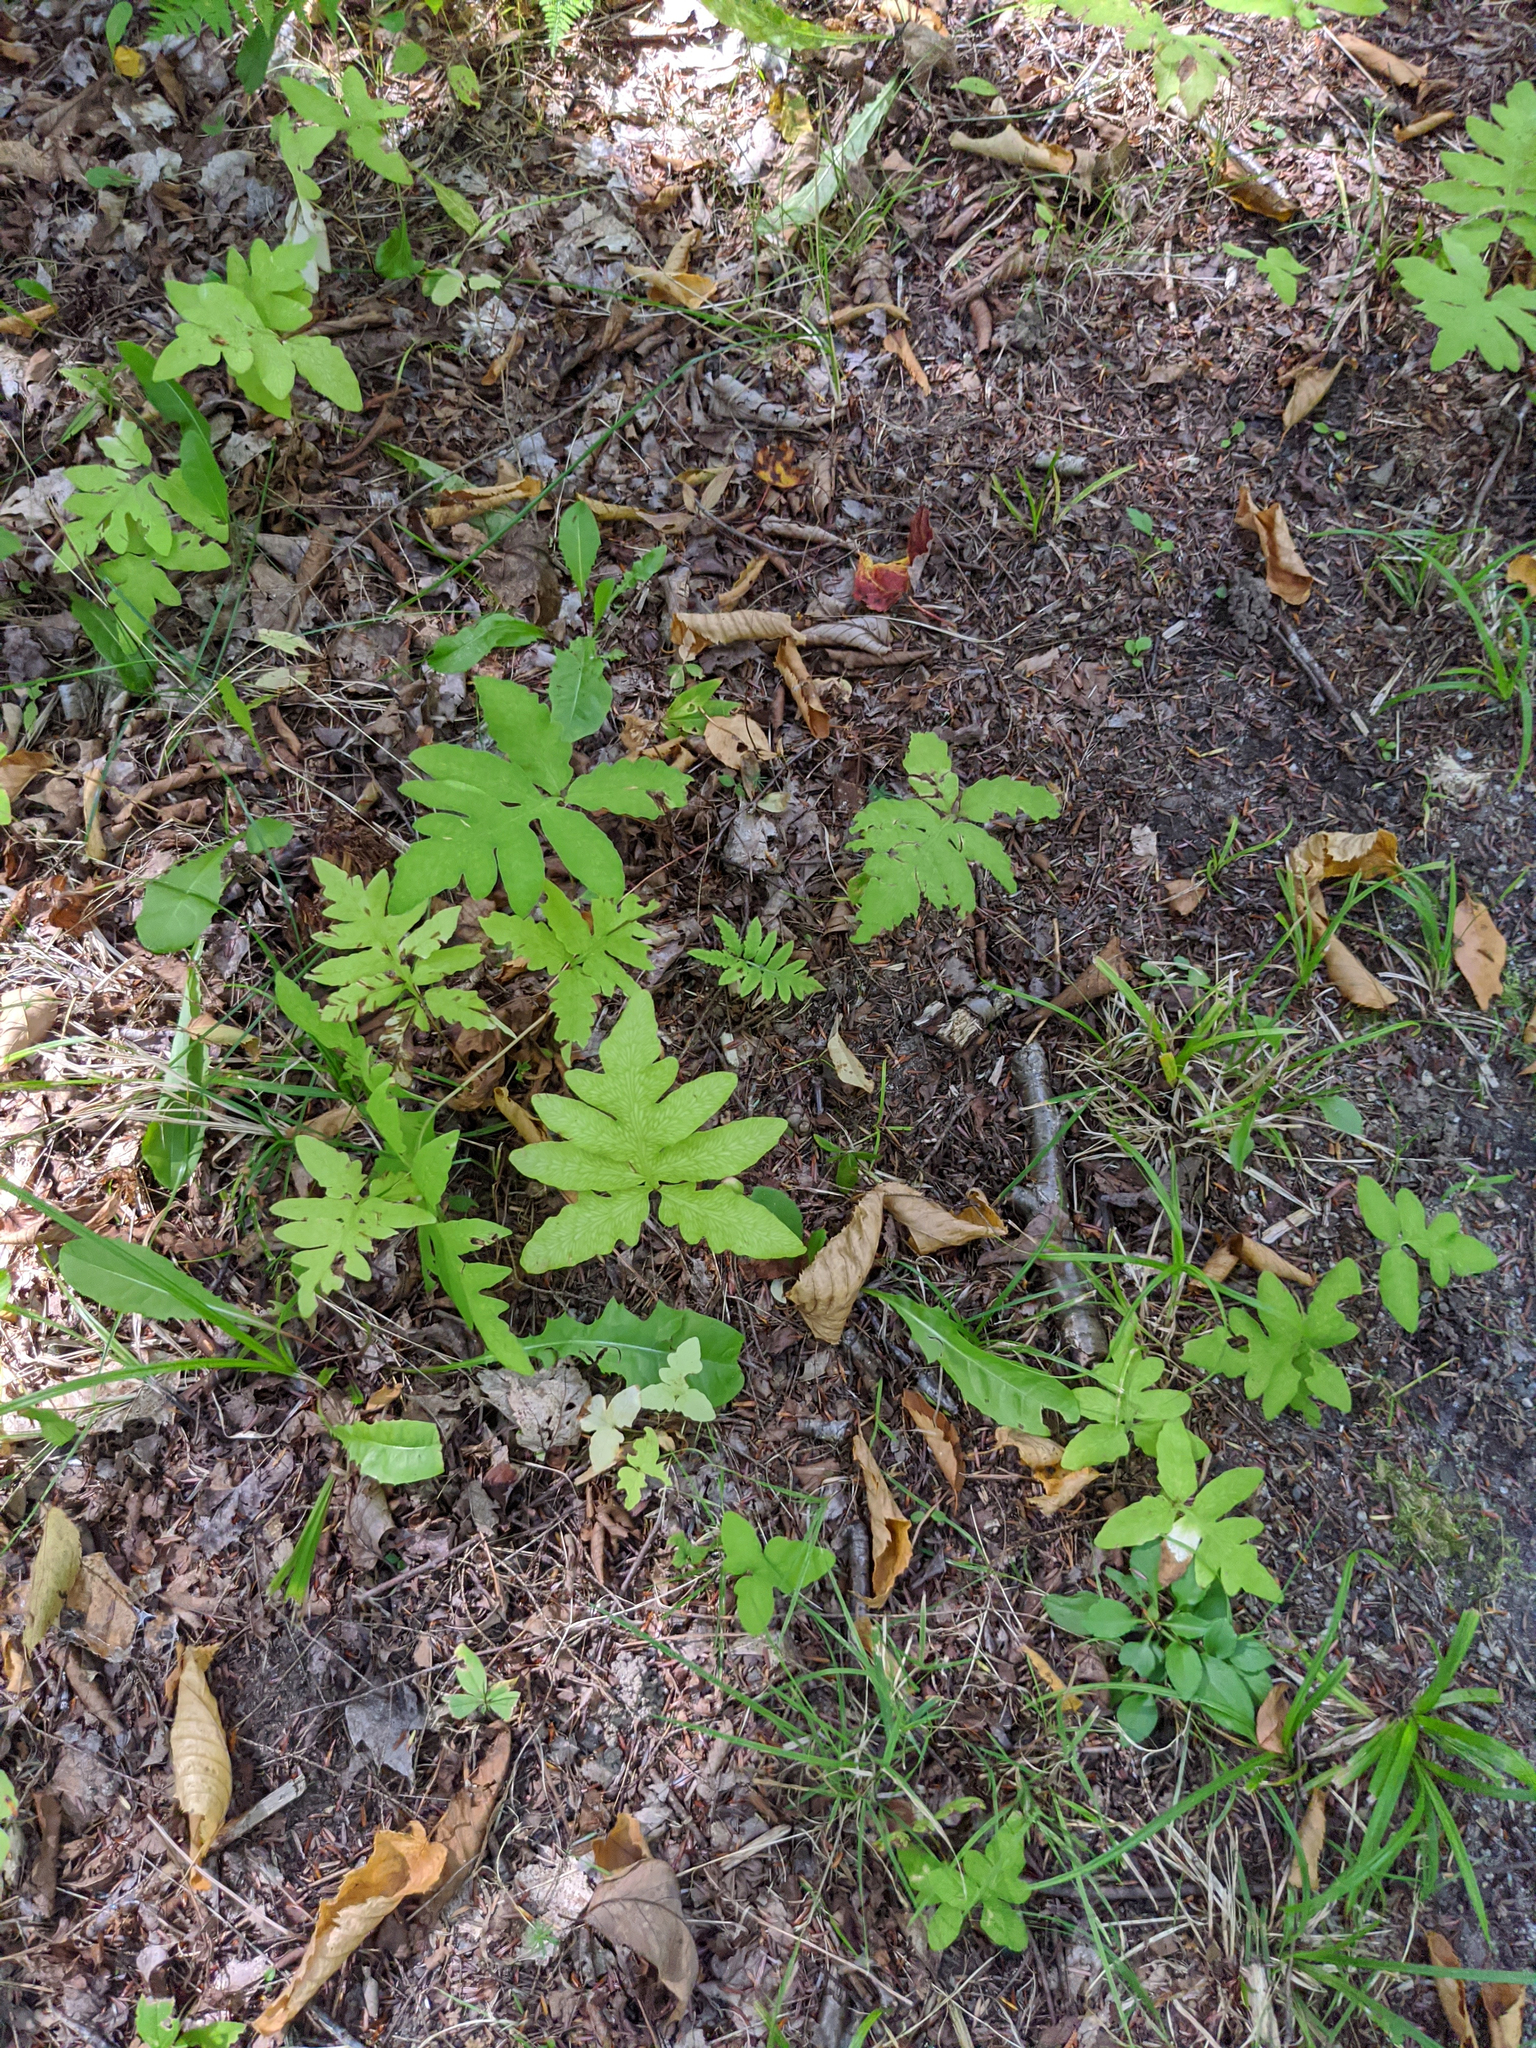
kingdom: Plantae
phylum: Tracheophyta
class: Polypodiopsida
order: Polypodiales
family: Onocleaceae
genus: Onoclea
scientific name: Onoclea sensibilis
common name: Sensitive fern
